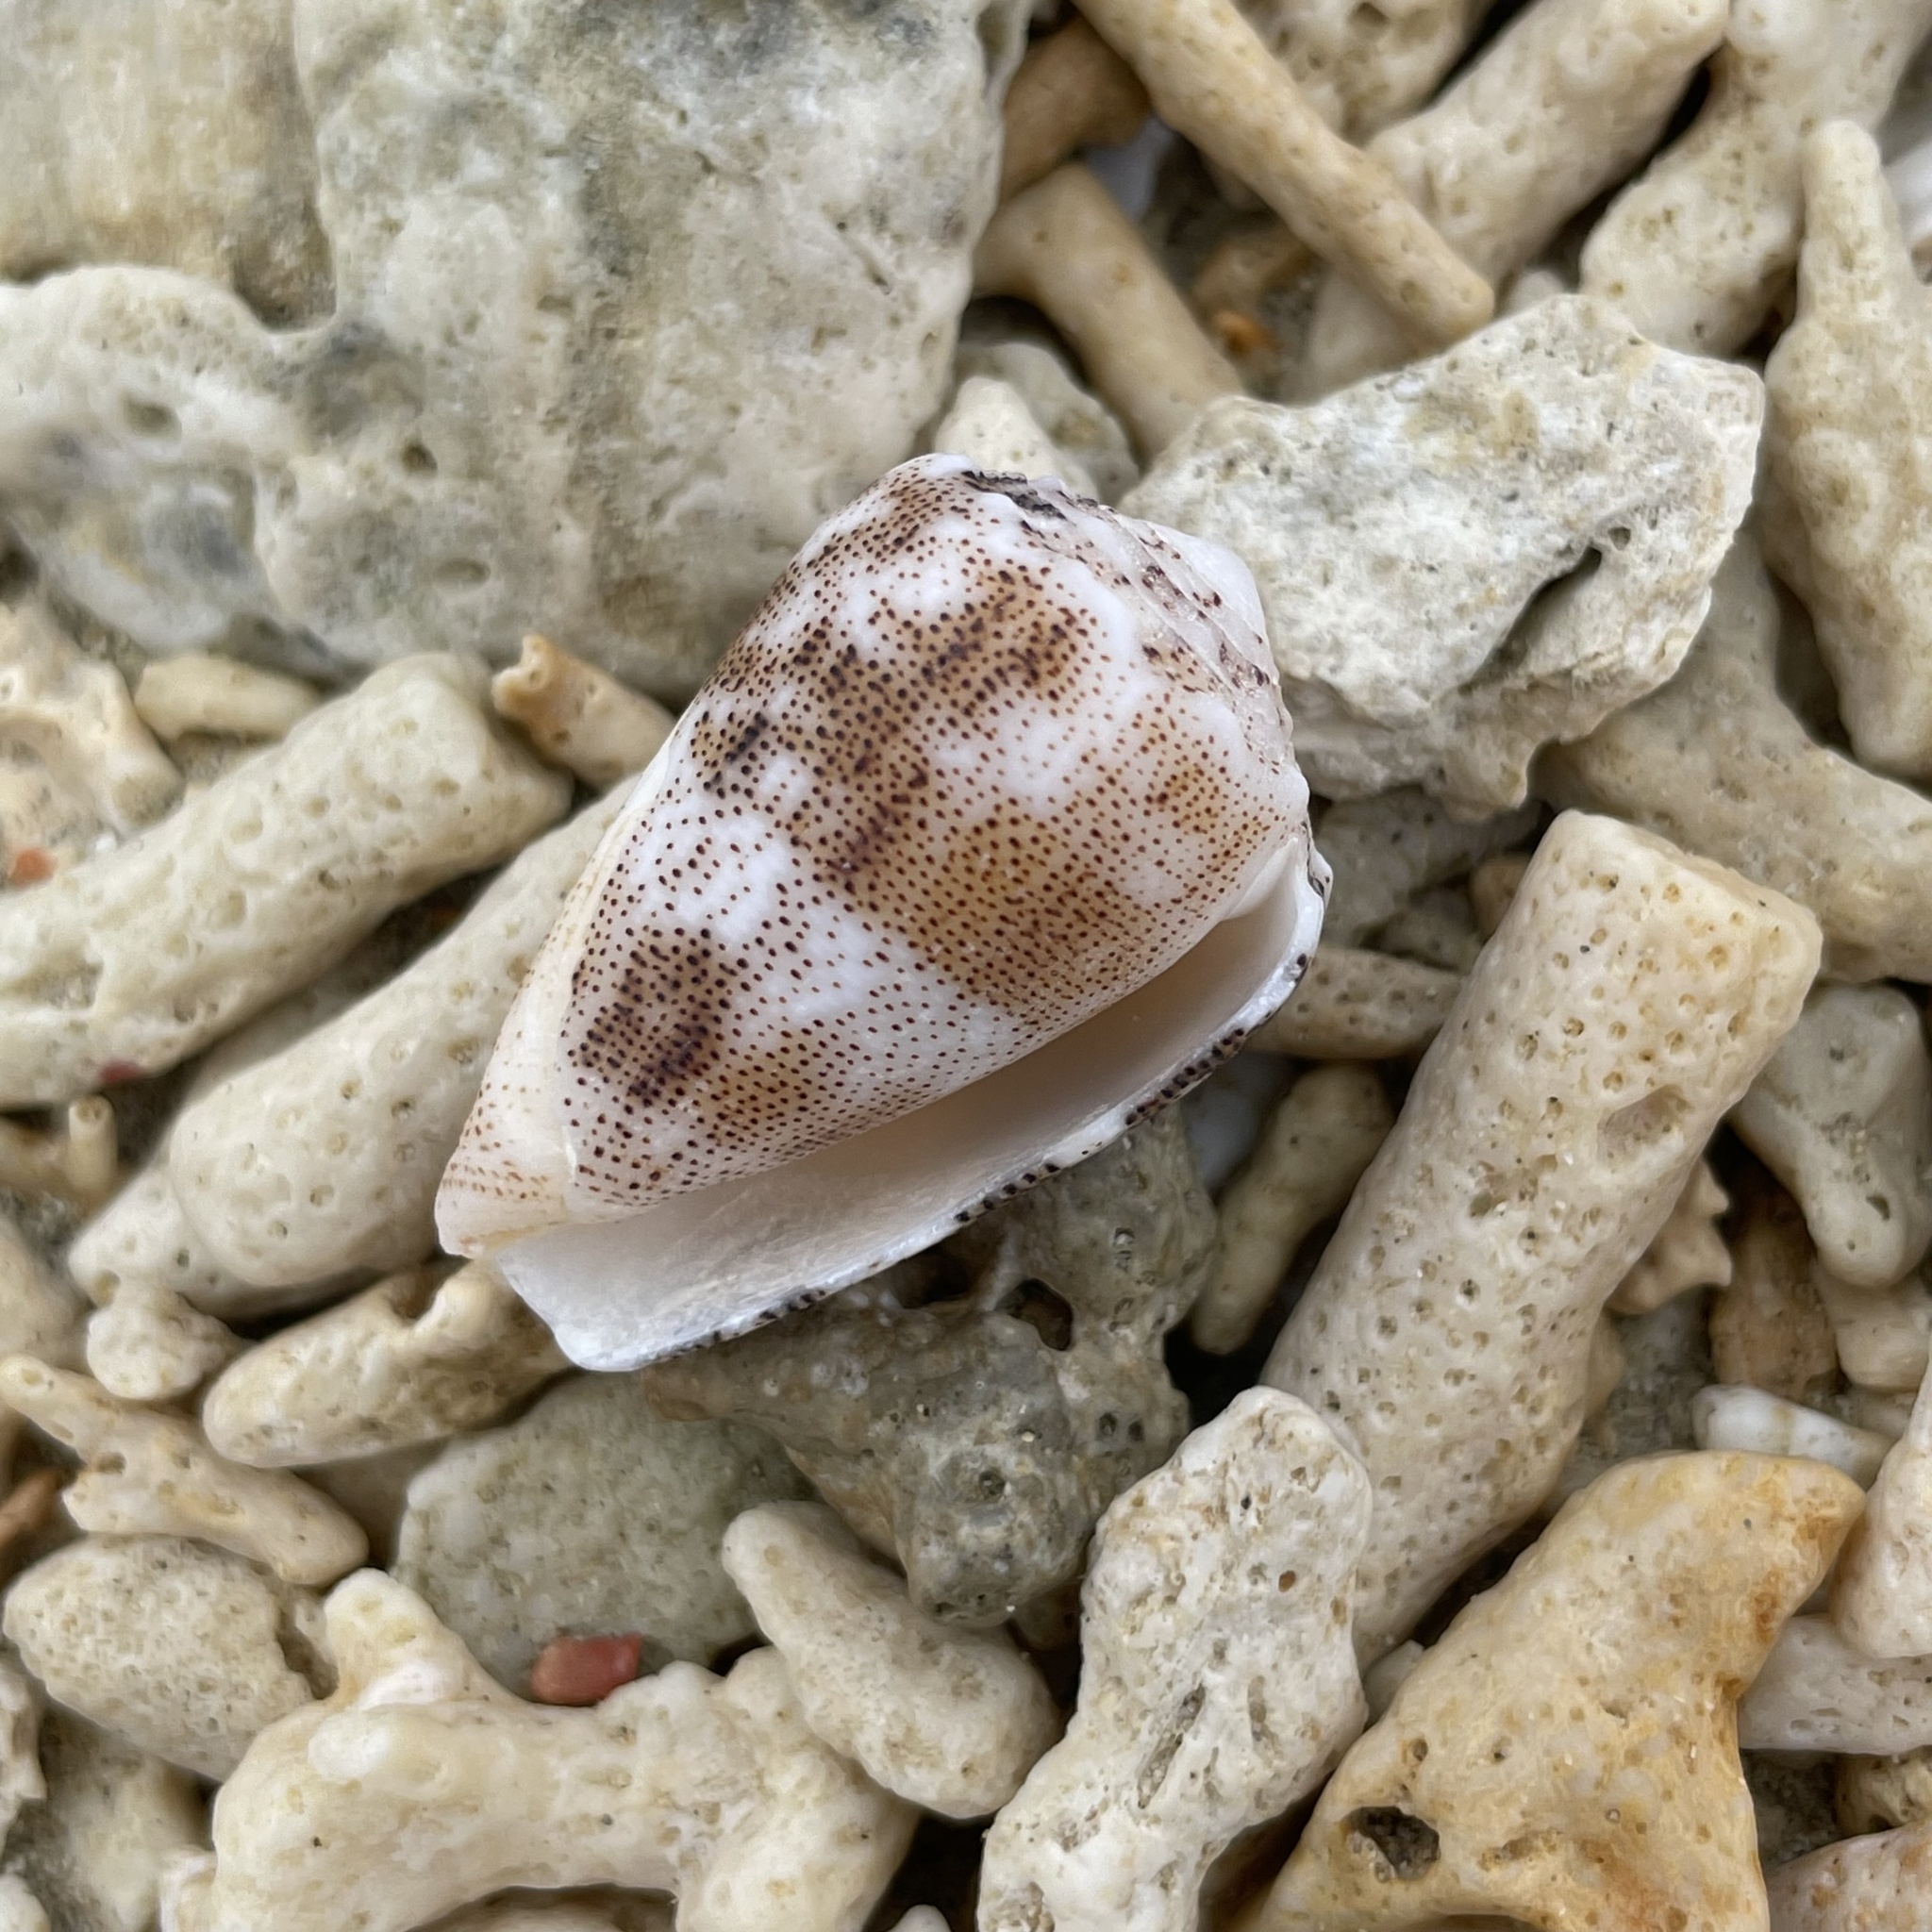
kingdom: Animalia
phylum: Mollusca
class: Gastropoda
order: Neogastropoda
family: Conidae
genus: Conus
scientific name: Conus arenatus
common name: Sand-dusted cone
